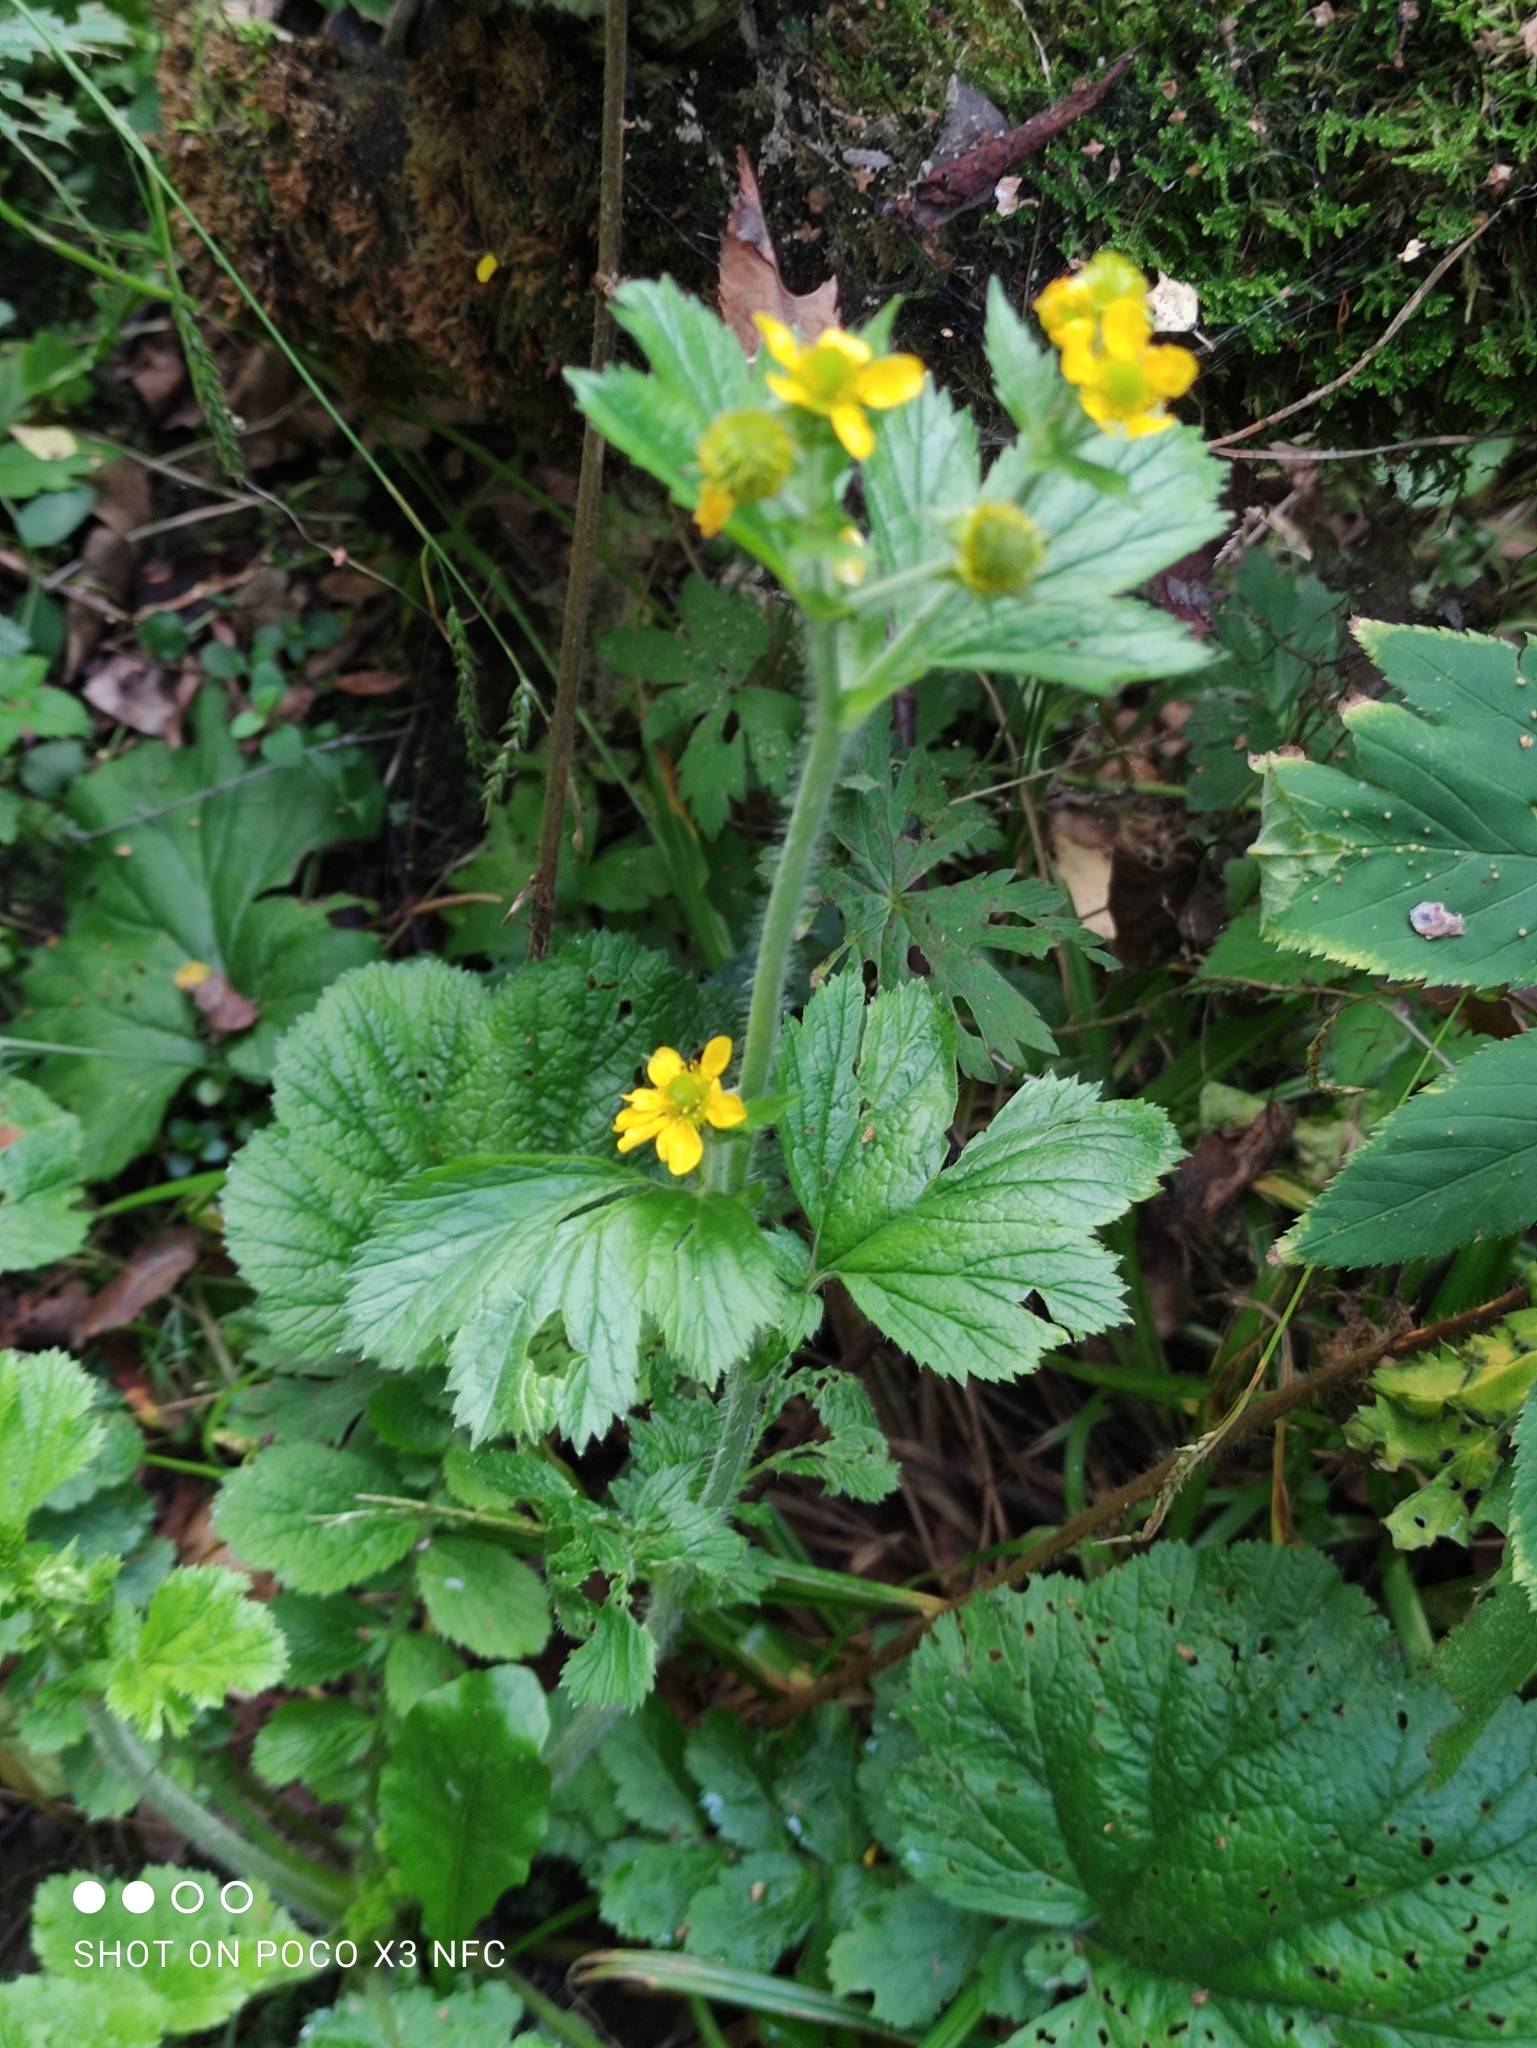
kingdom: Plantae
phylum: Tracheophyta
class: Magnoliopsida
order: Rosales
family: Rosaceae
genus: Geum
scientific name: Geum macrophyllum
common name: Large-leaved avens
